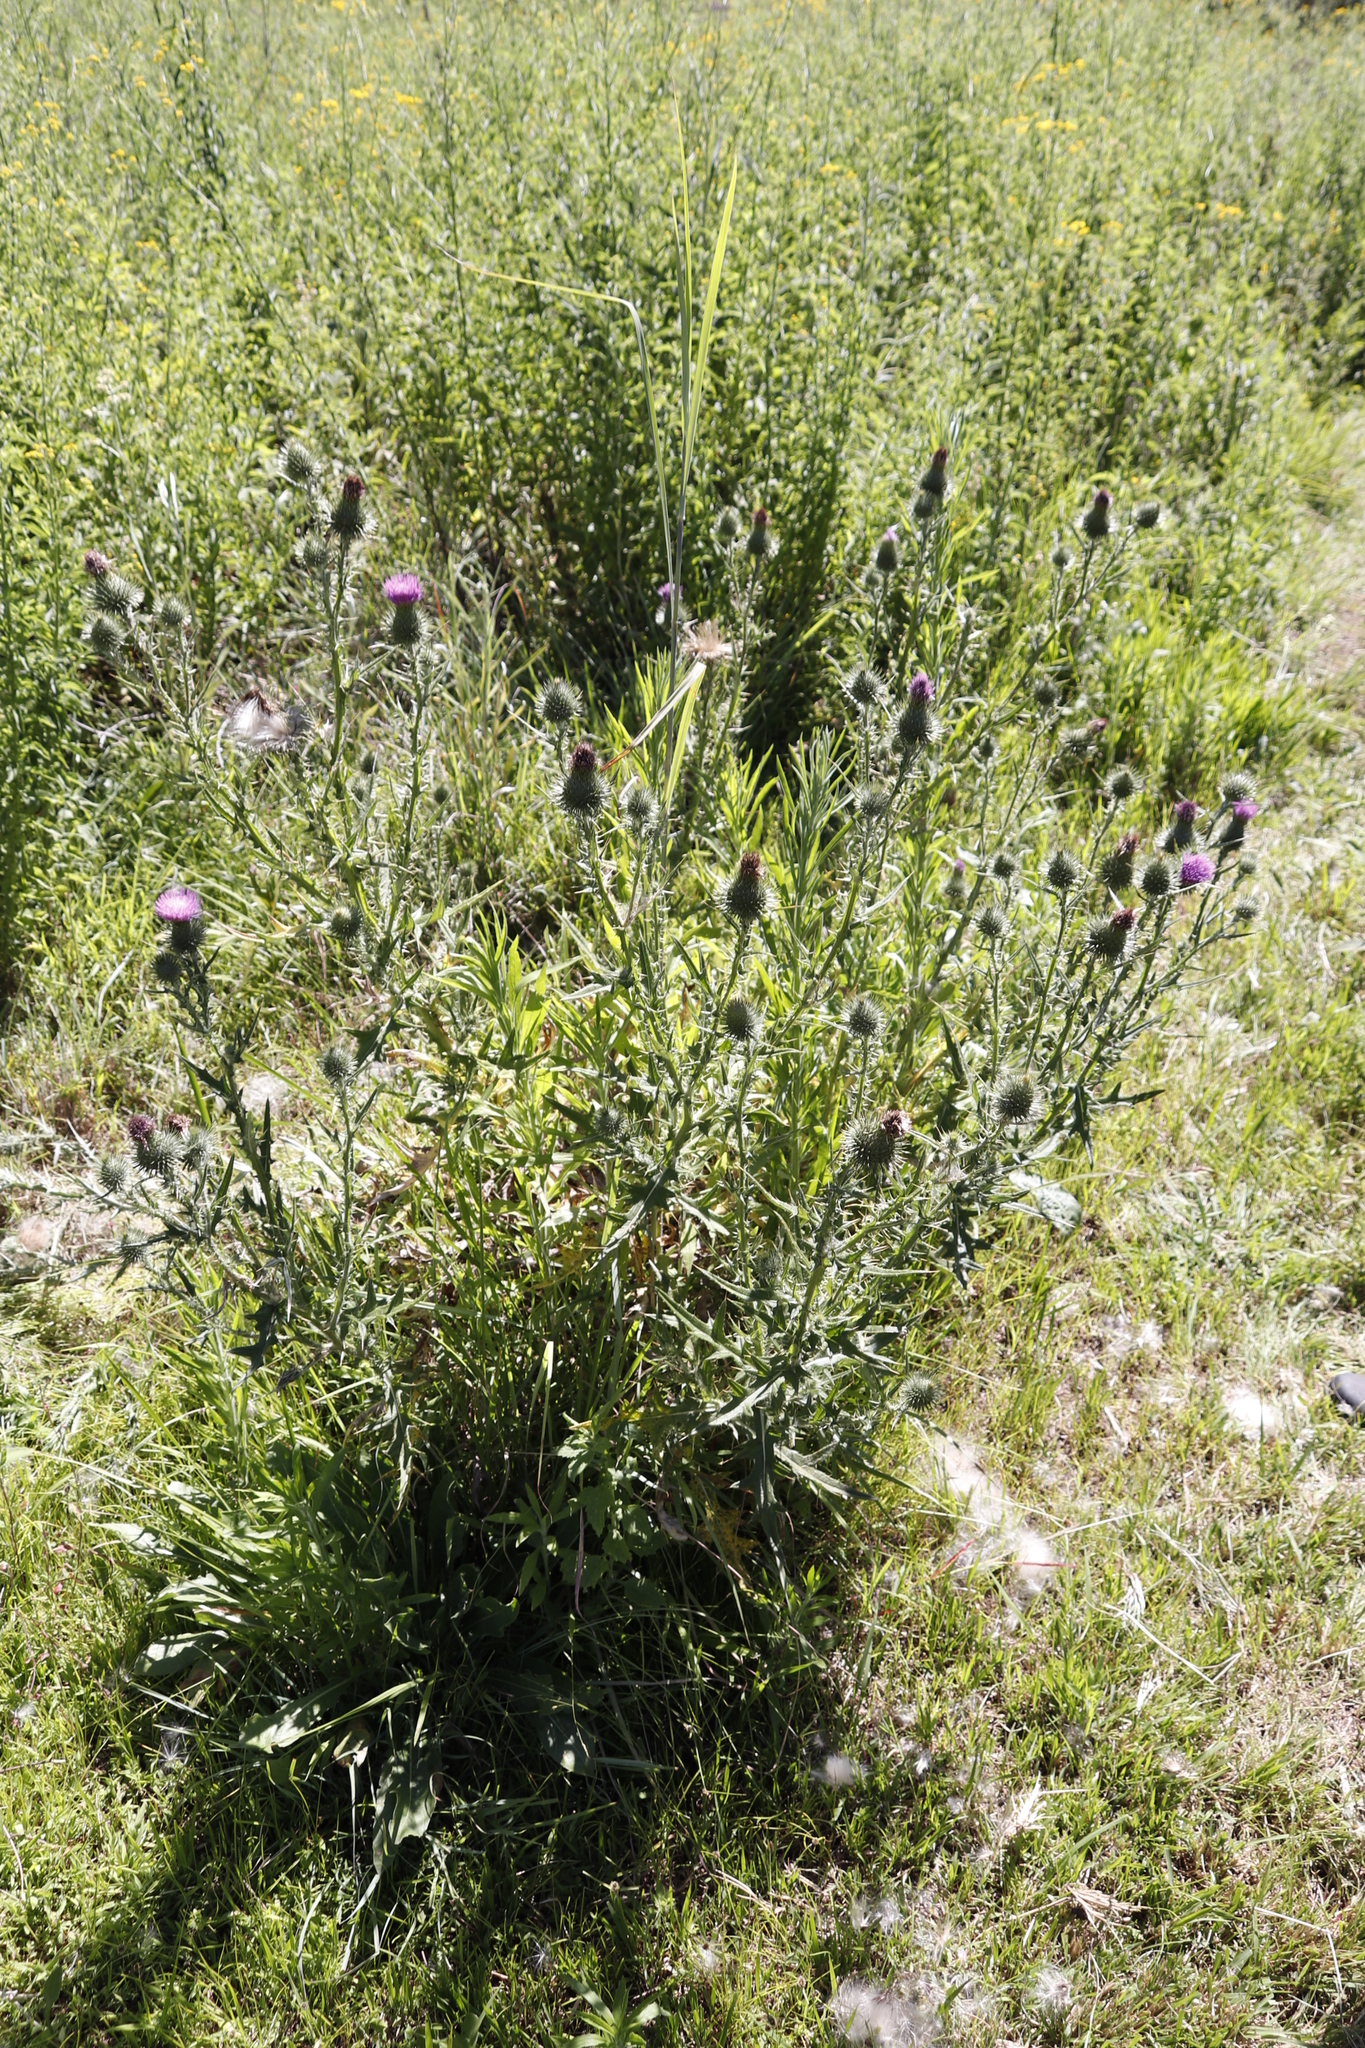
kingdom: Plantae
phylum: Tracheophyta
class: Magnoliopsida
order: Asterales
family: Asteraceae
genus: Cirsium
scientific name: Cirsium vulgare
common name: Bull thistle
